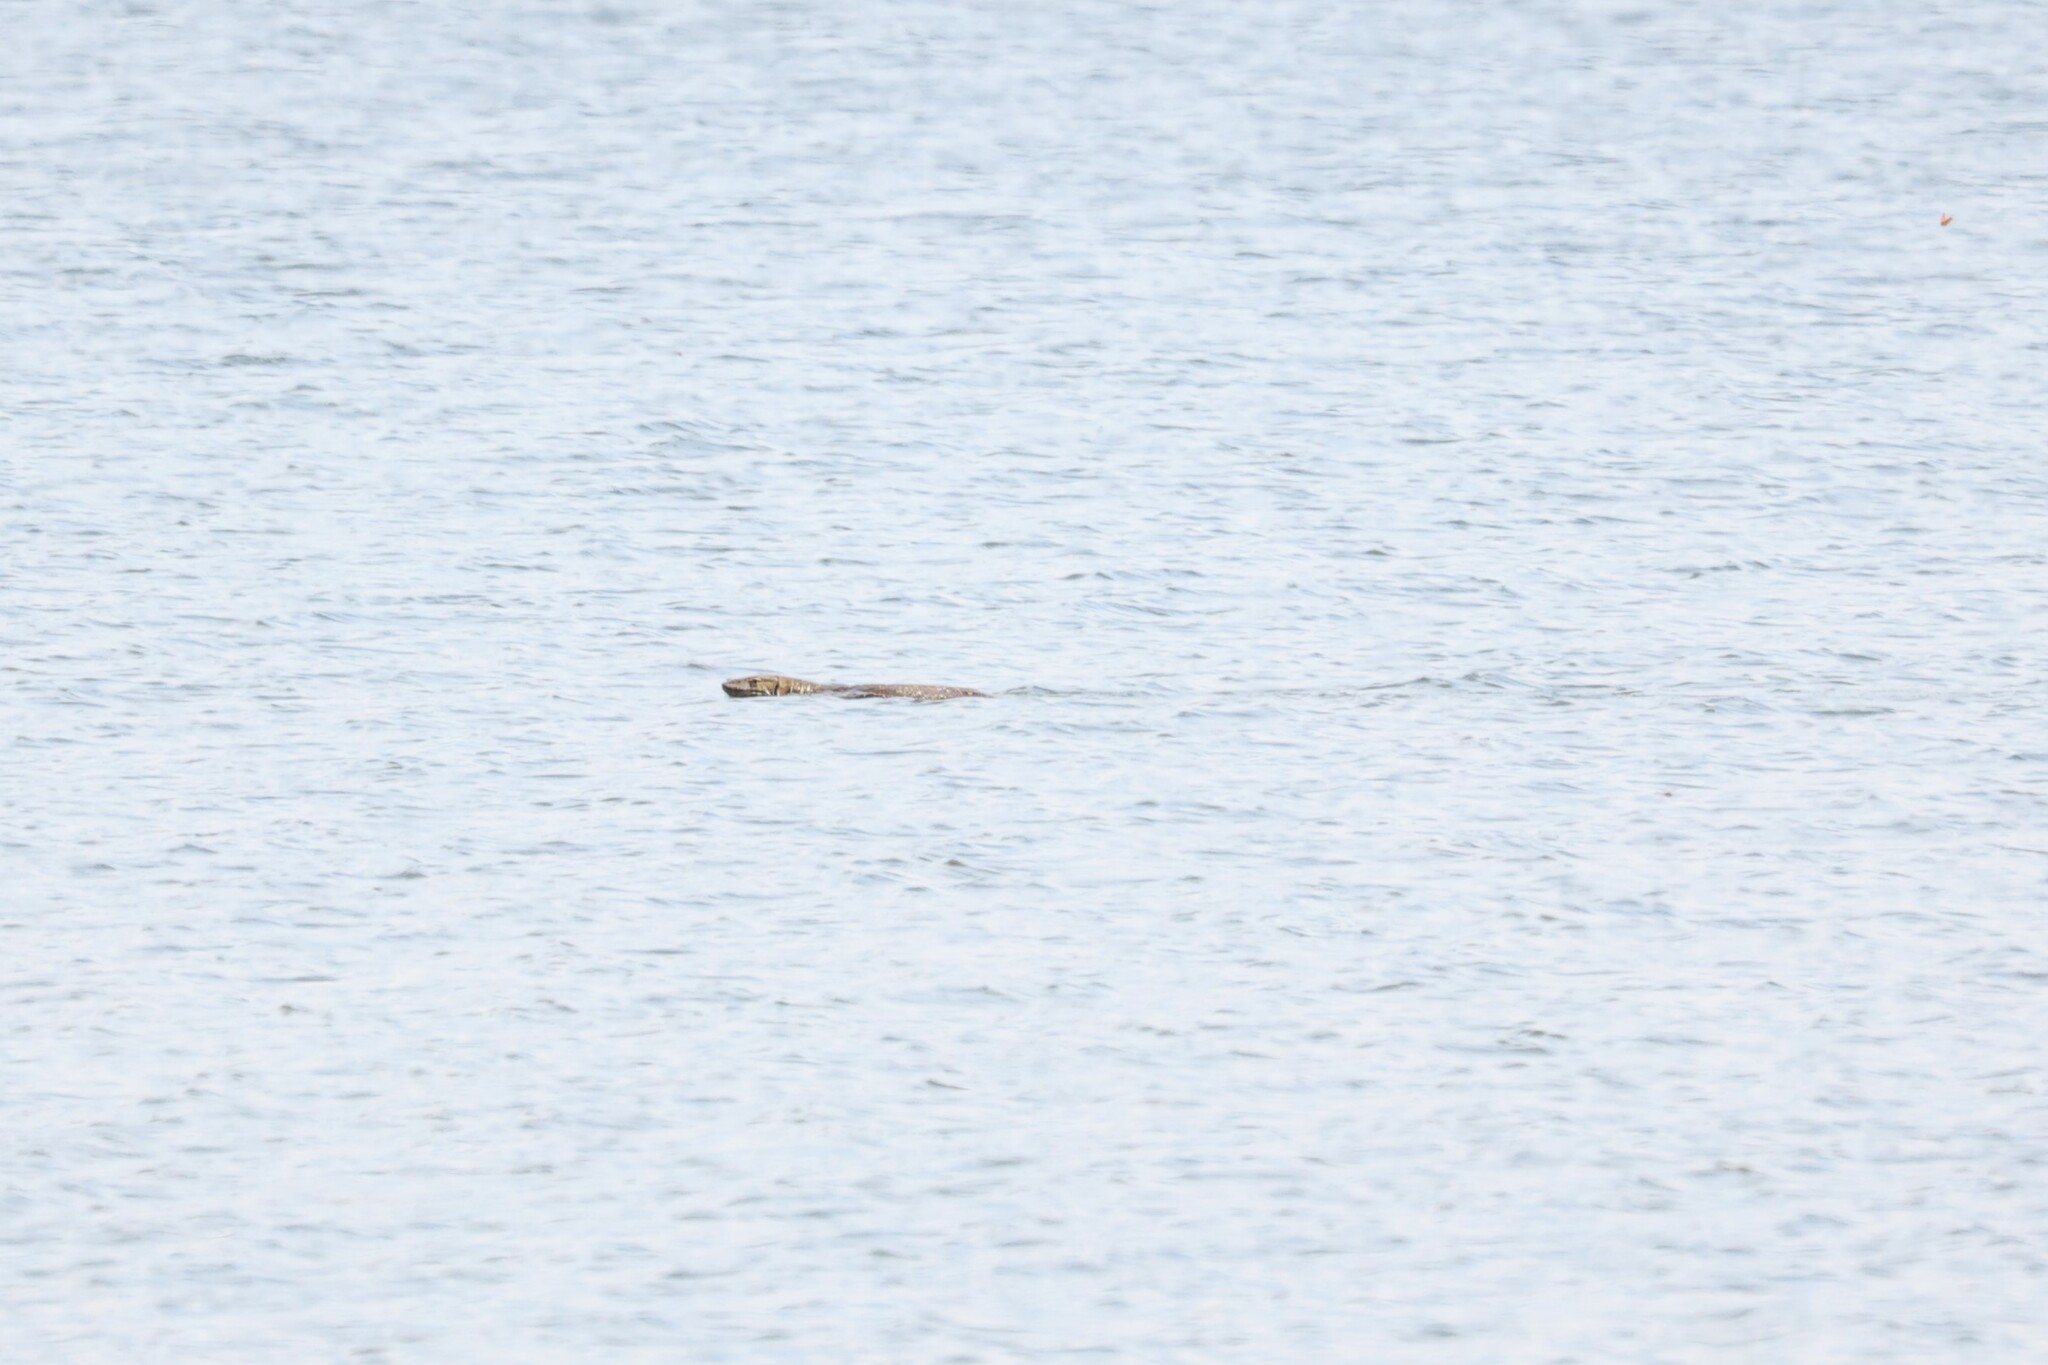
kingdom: Animalia
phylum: Chordata
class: Squamata
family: Varanidae
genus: Varanus
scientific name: Varanus niloticus
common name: Nile monitor
